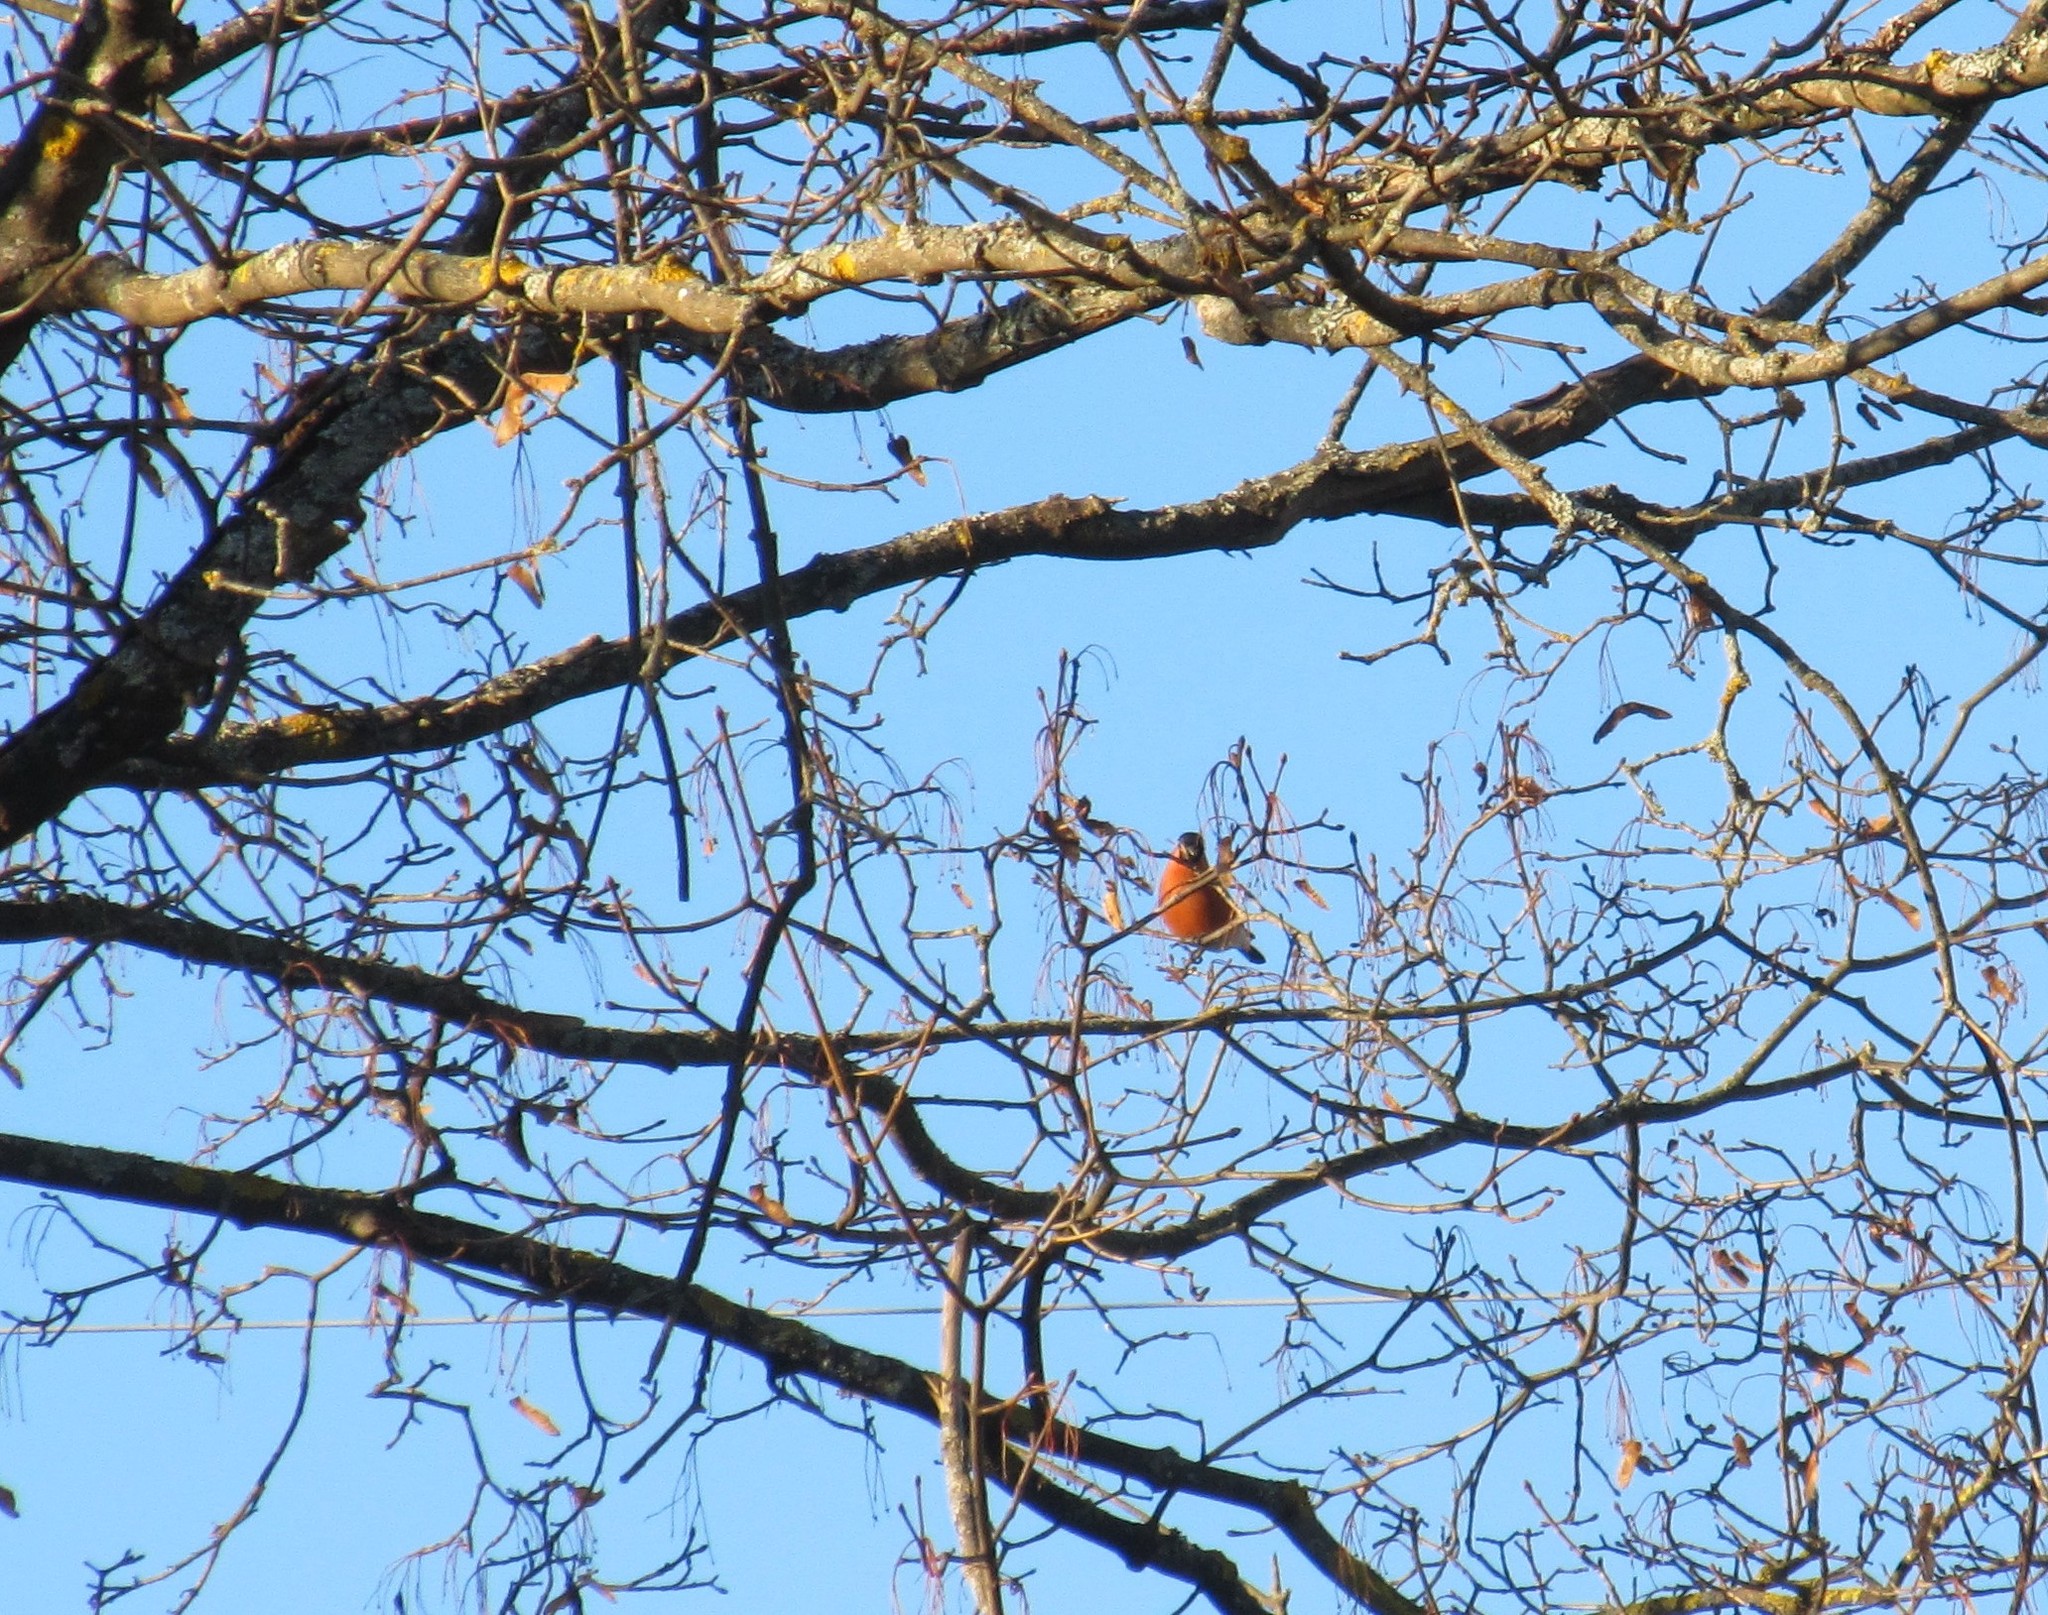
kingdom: Animalia
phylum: Chordata
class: Aves
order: Passeriformes
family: Fringillidae
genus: Pyrrhula
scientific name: Pyrrhula pyrrhula
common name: Eurasian bullfinch
